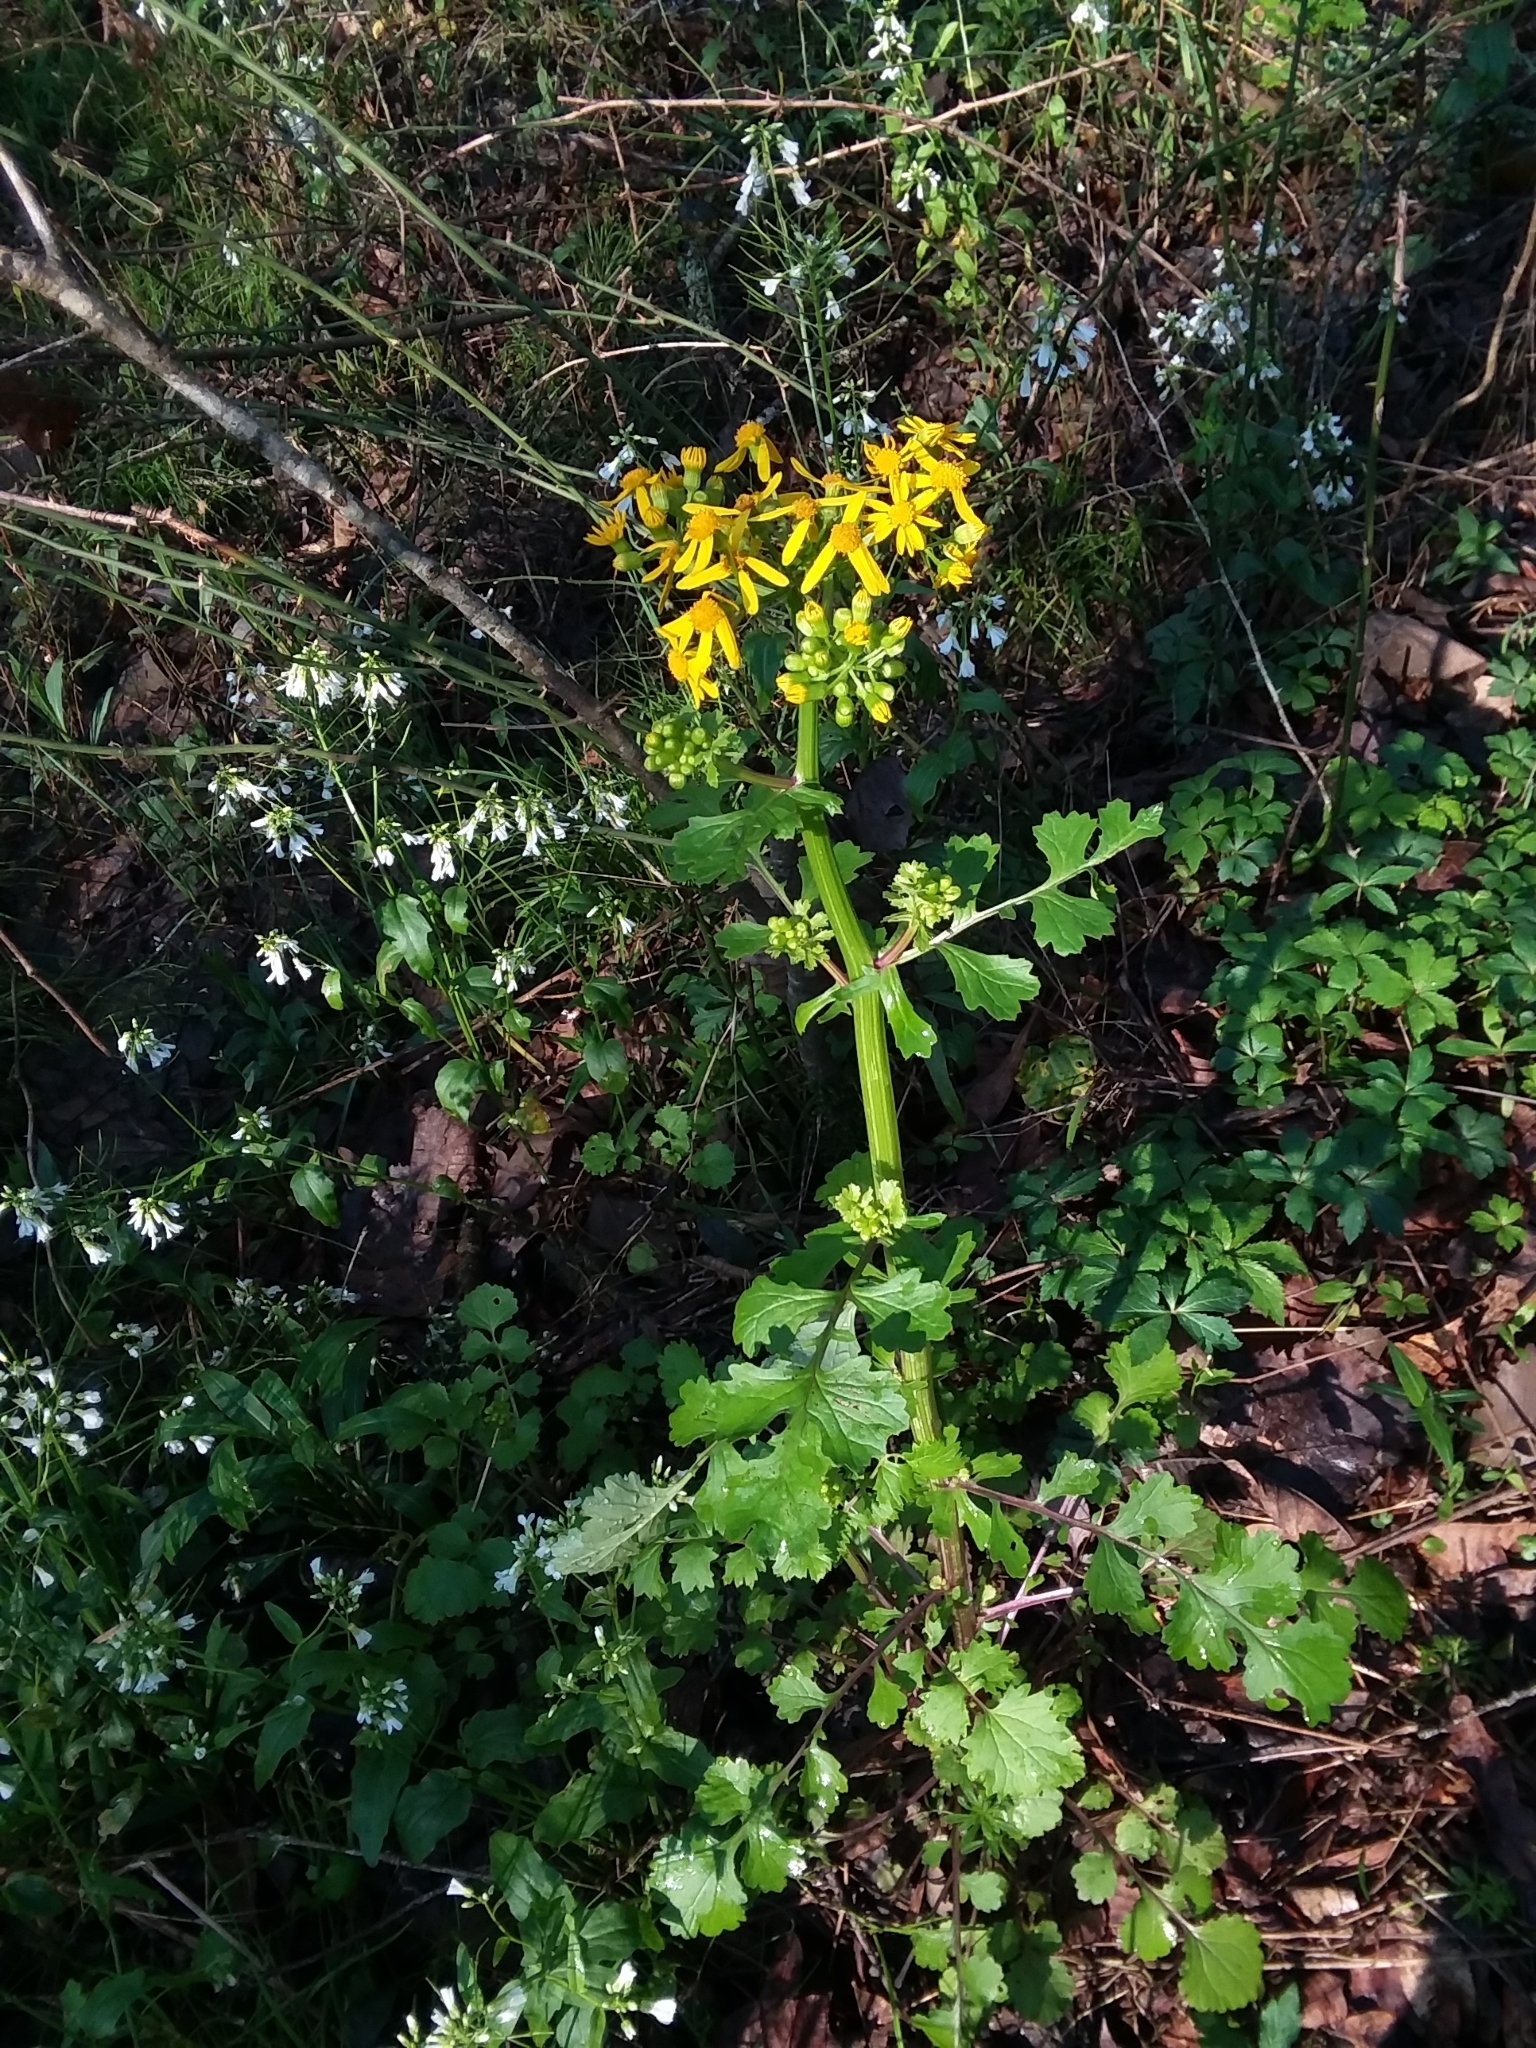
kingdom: Plantae
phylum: Tracheophyta
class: Magnoliopsida
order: Asterales
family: Asteraceae
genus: Packera
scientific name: Packera glabella
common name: Butterweed
